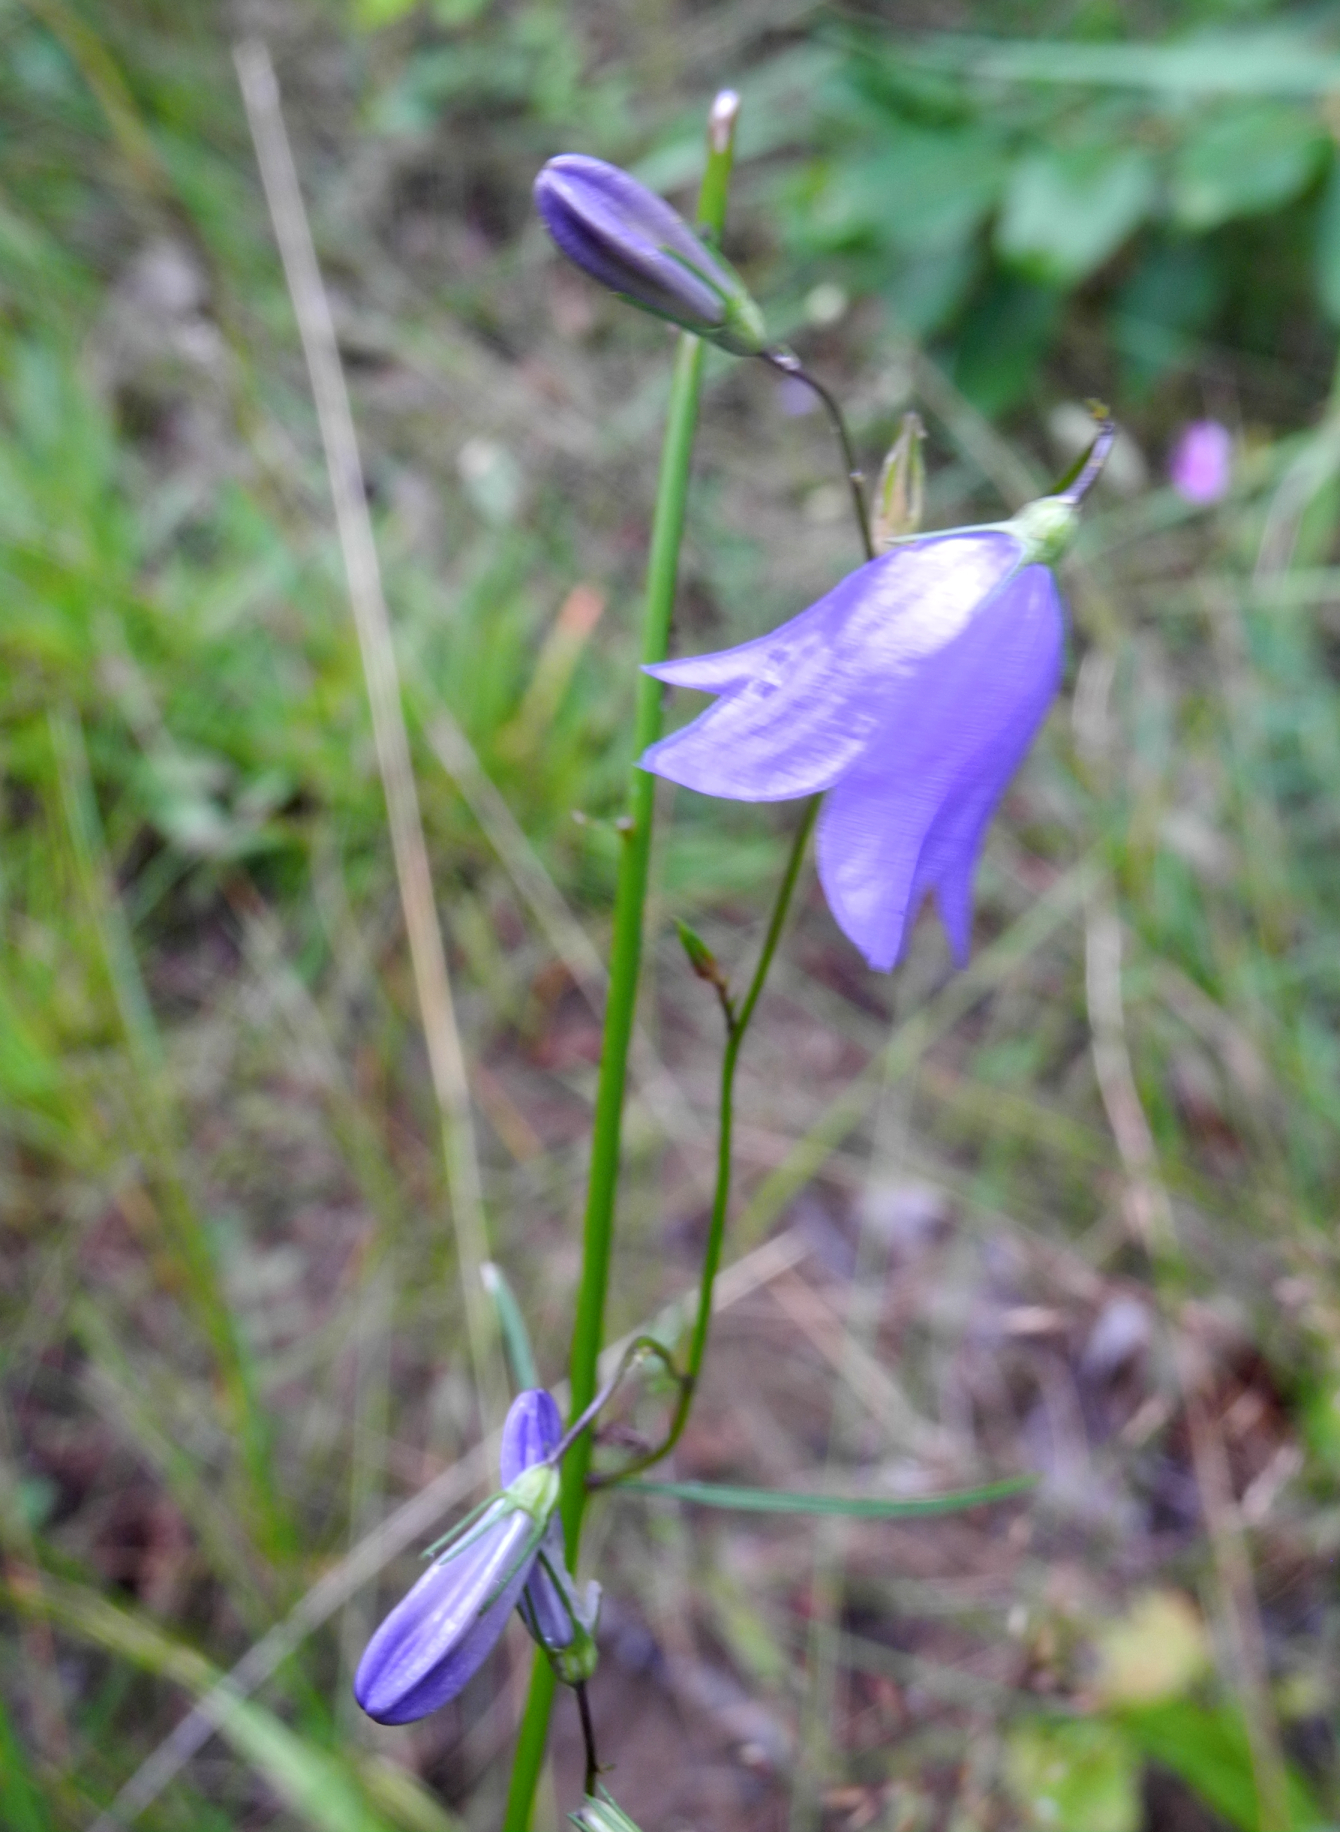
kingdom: Plantae
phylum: Tracheophyta
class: Magnoliopsida
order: Asterales
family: Campanulaceae
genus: Campanula
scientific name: Campanula rotundifolia
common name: Harebell
